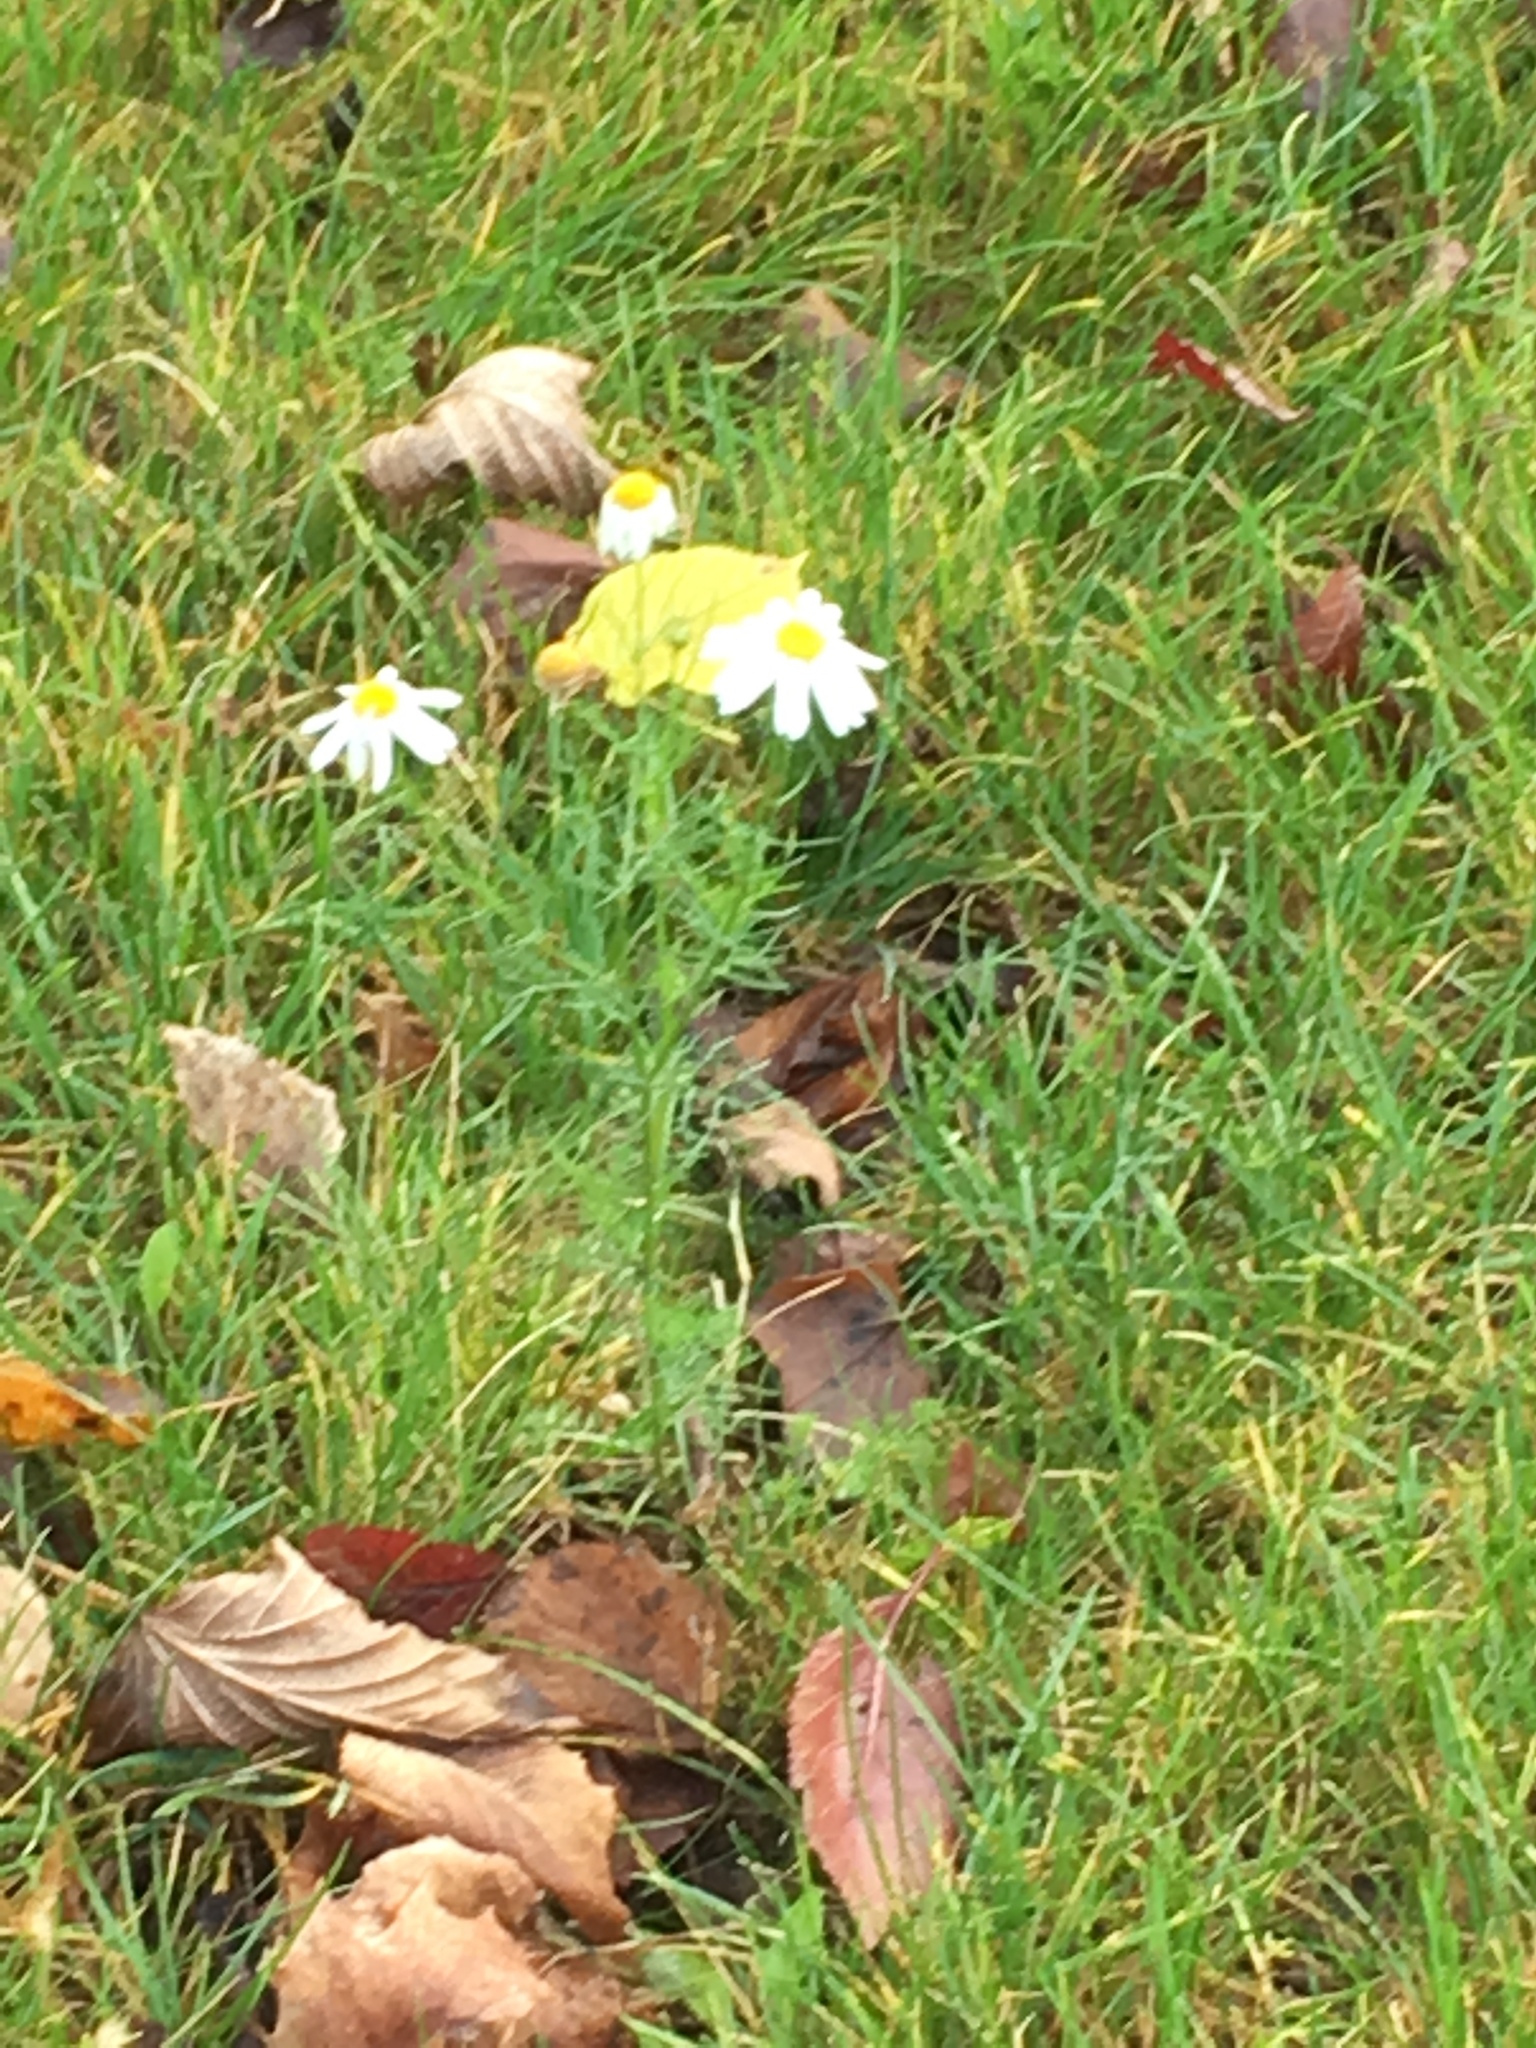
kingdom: Plantae
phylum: Tracheophyta
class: Magnoliopsida
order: Asterales
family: Asteraceae
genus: Tripleurospermum
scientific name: Tripleurospermum inodorum
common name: Scentless mayweed
